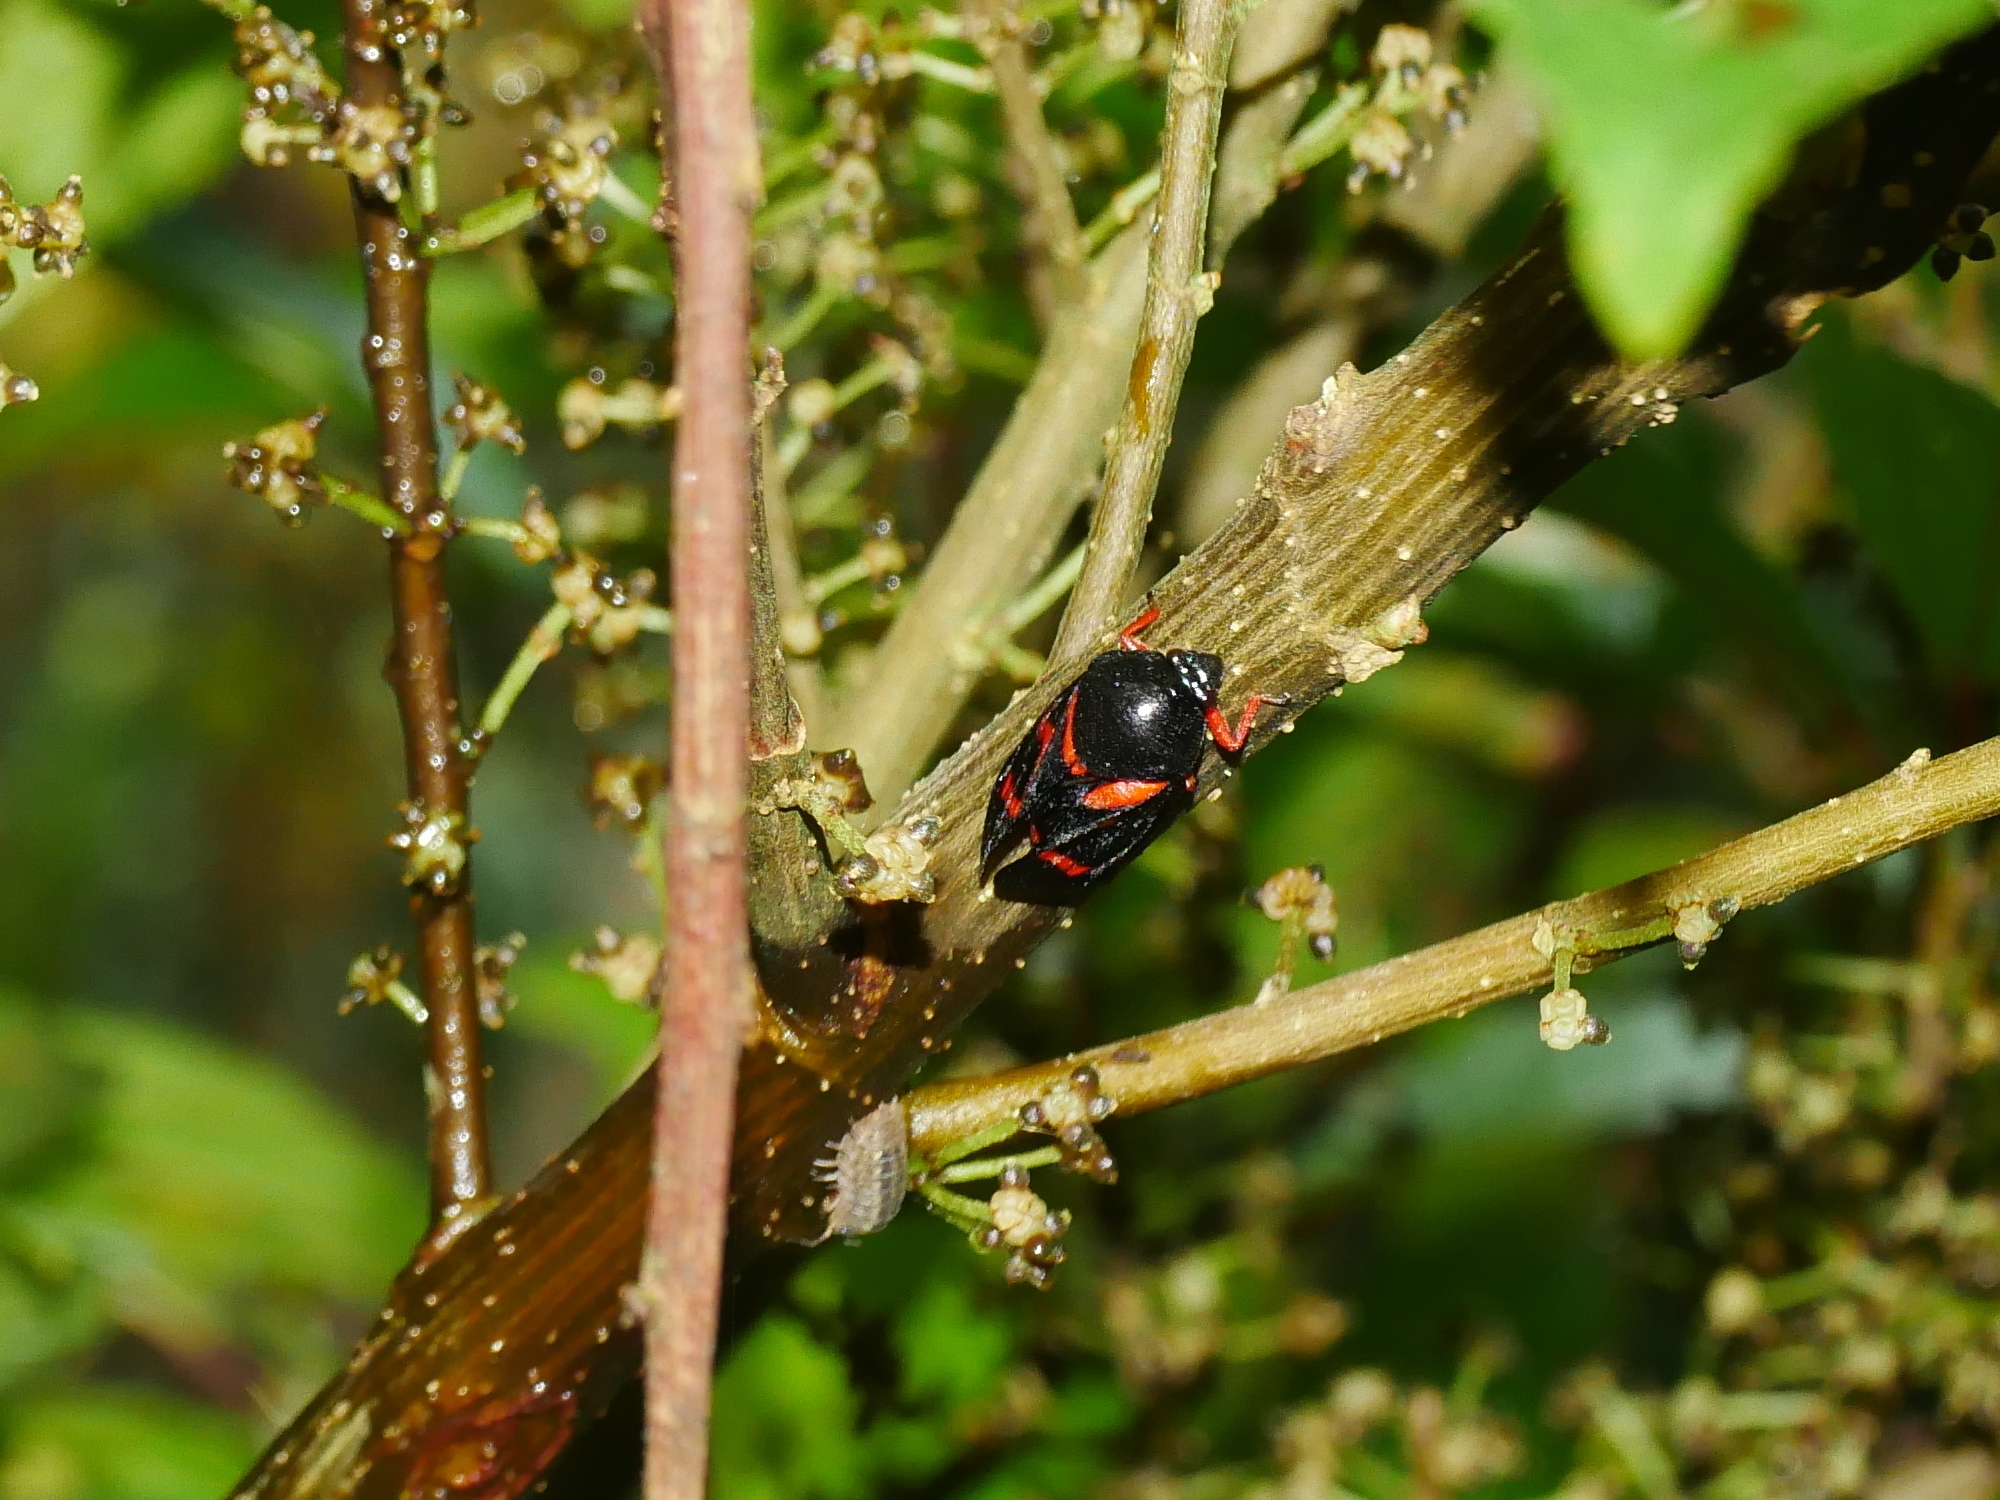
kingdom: Animalia
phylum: Arthropoda
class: Insecta
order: Hemiptera
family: Cercopidae
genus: Okiscarta
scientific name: Okiscarta uchidae
